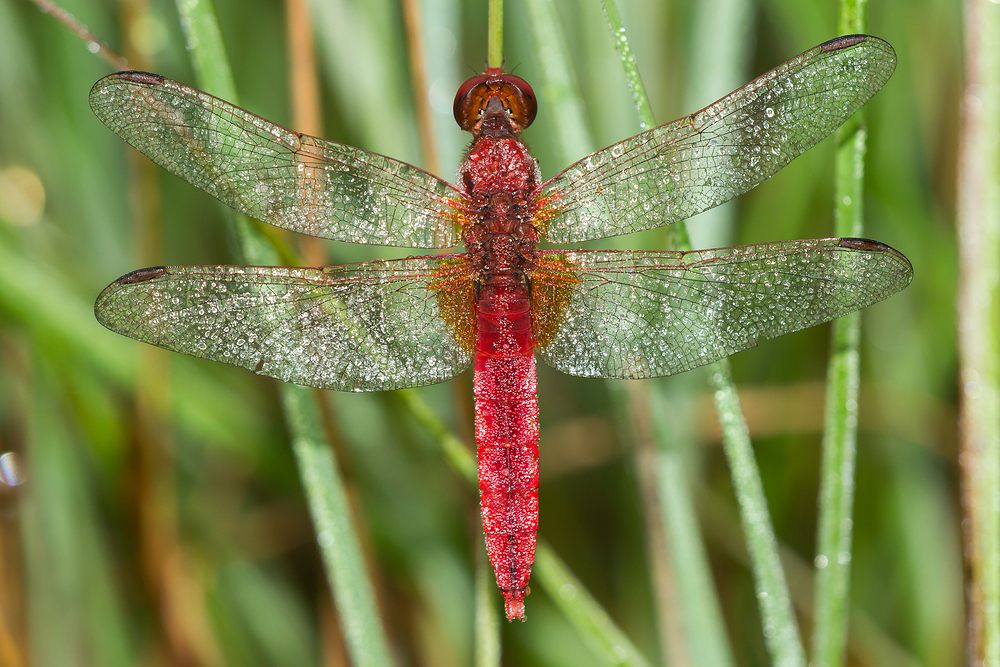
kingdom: Animalia
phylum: Arthropoda
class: Insecta
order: Odonata
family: Libellulidae
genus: Crocothemis
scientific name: Crocothemis erythraea
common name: Scarlet dragonfly
